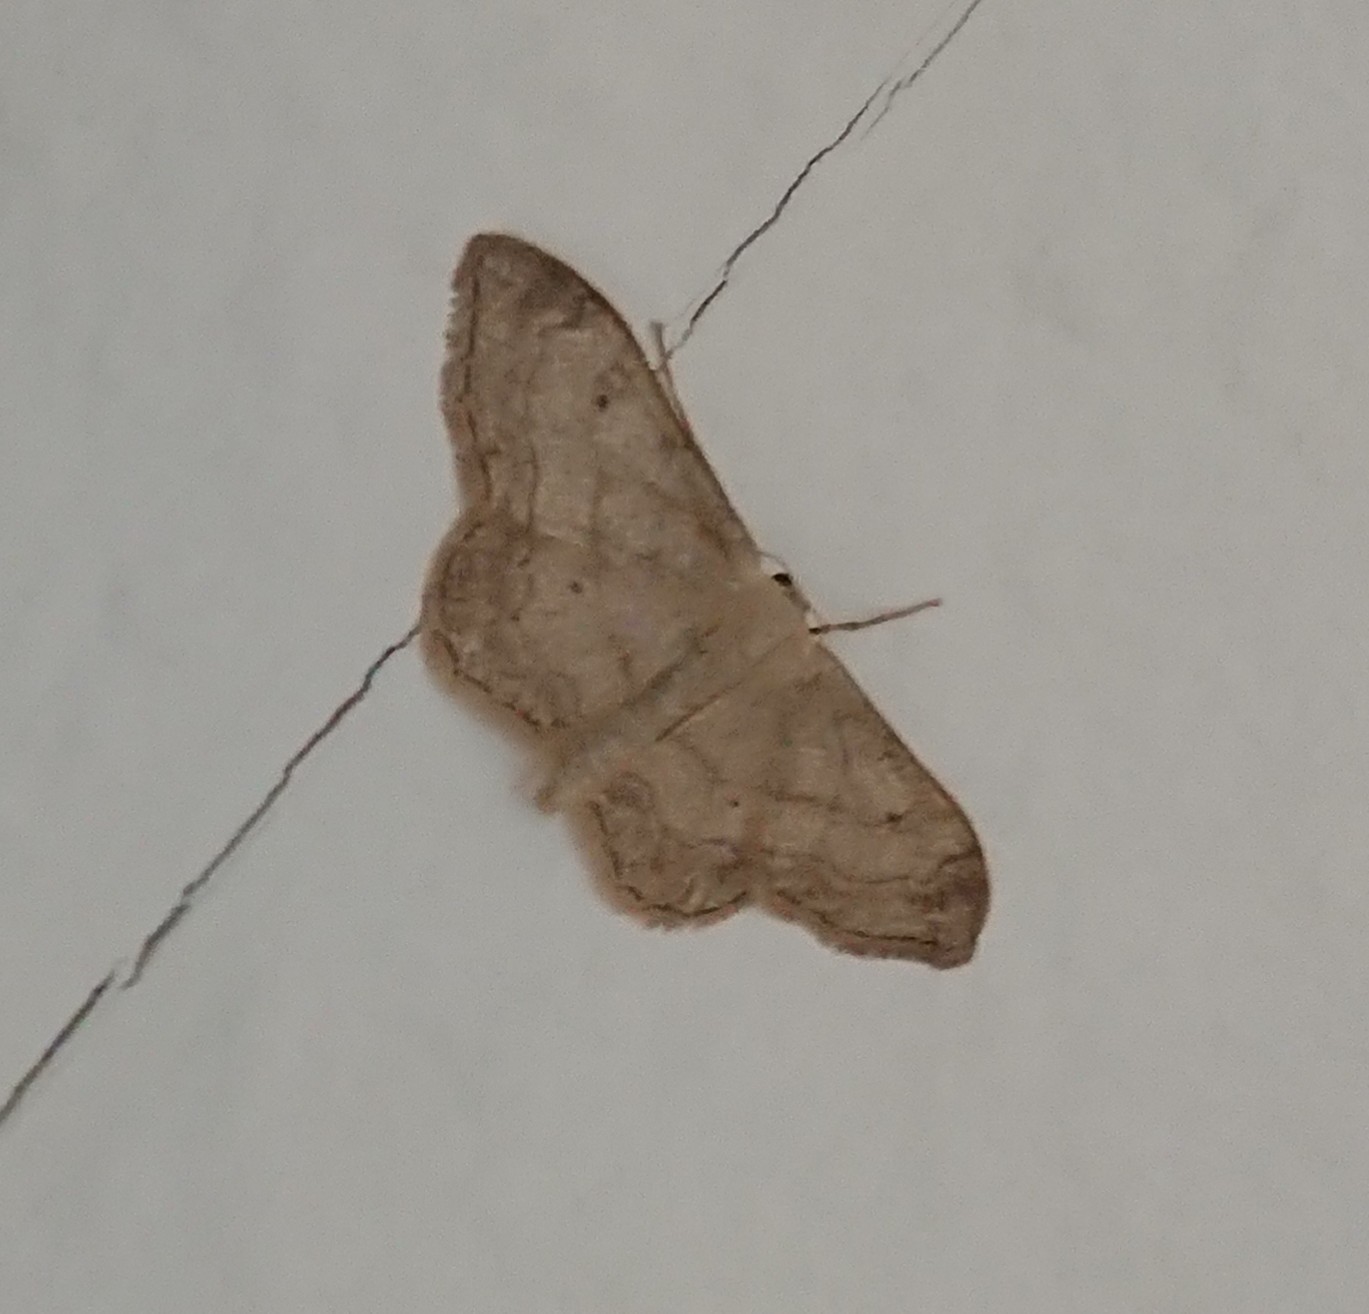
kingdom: Animalia
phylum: Arthropoda
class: Insecta
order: Lepidoptera
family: Geometridae
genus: Idaea
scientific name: Idaea aversata
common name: Riband wave
